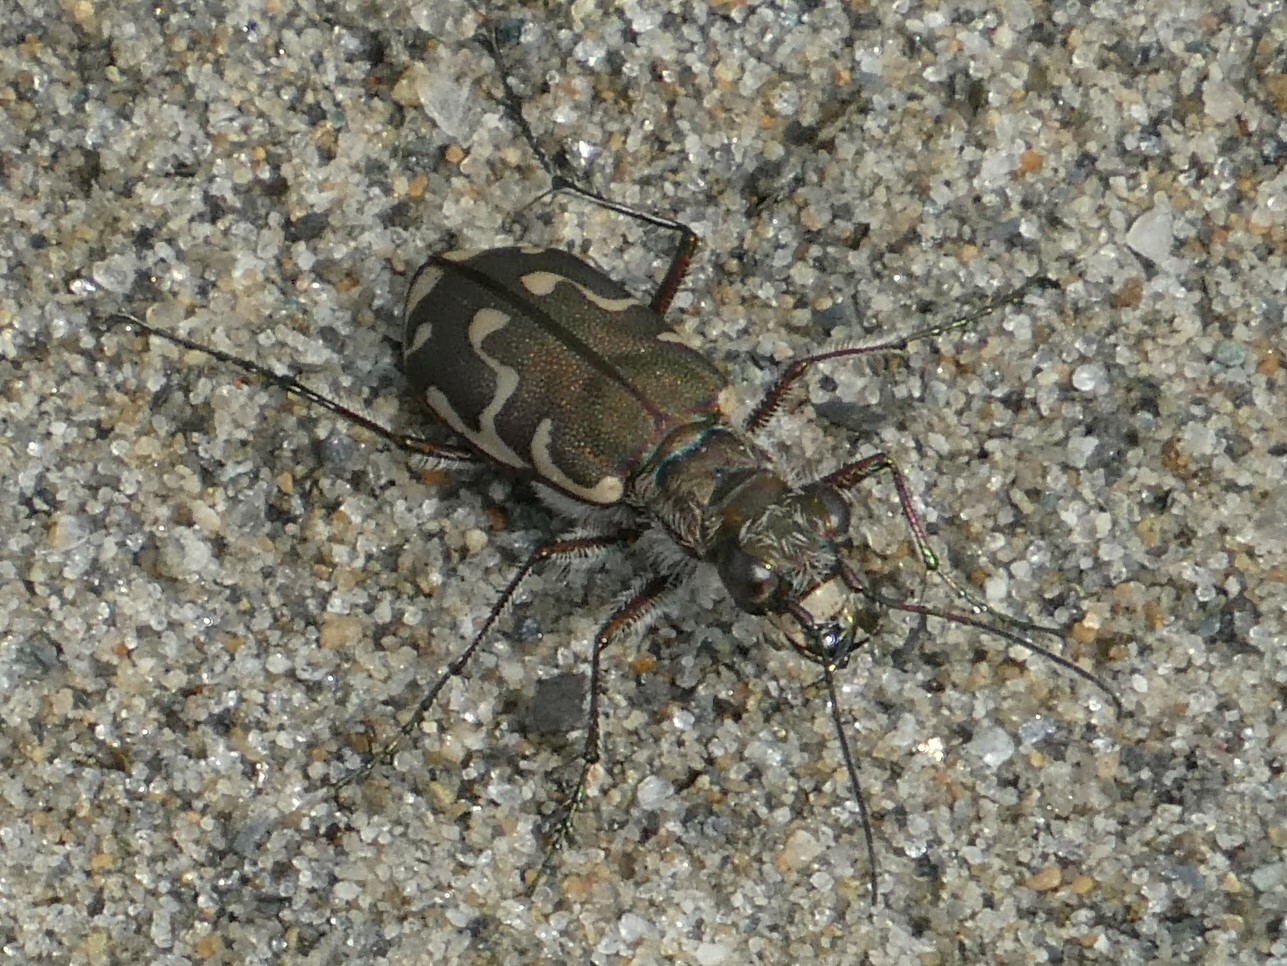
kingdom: Animalia
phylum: Arthropoda
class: Insecta
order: Coleoptera
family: Carabidae
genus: Cicindela
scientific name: Cicindela repanda
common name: Bronzed tiger beetle
